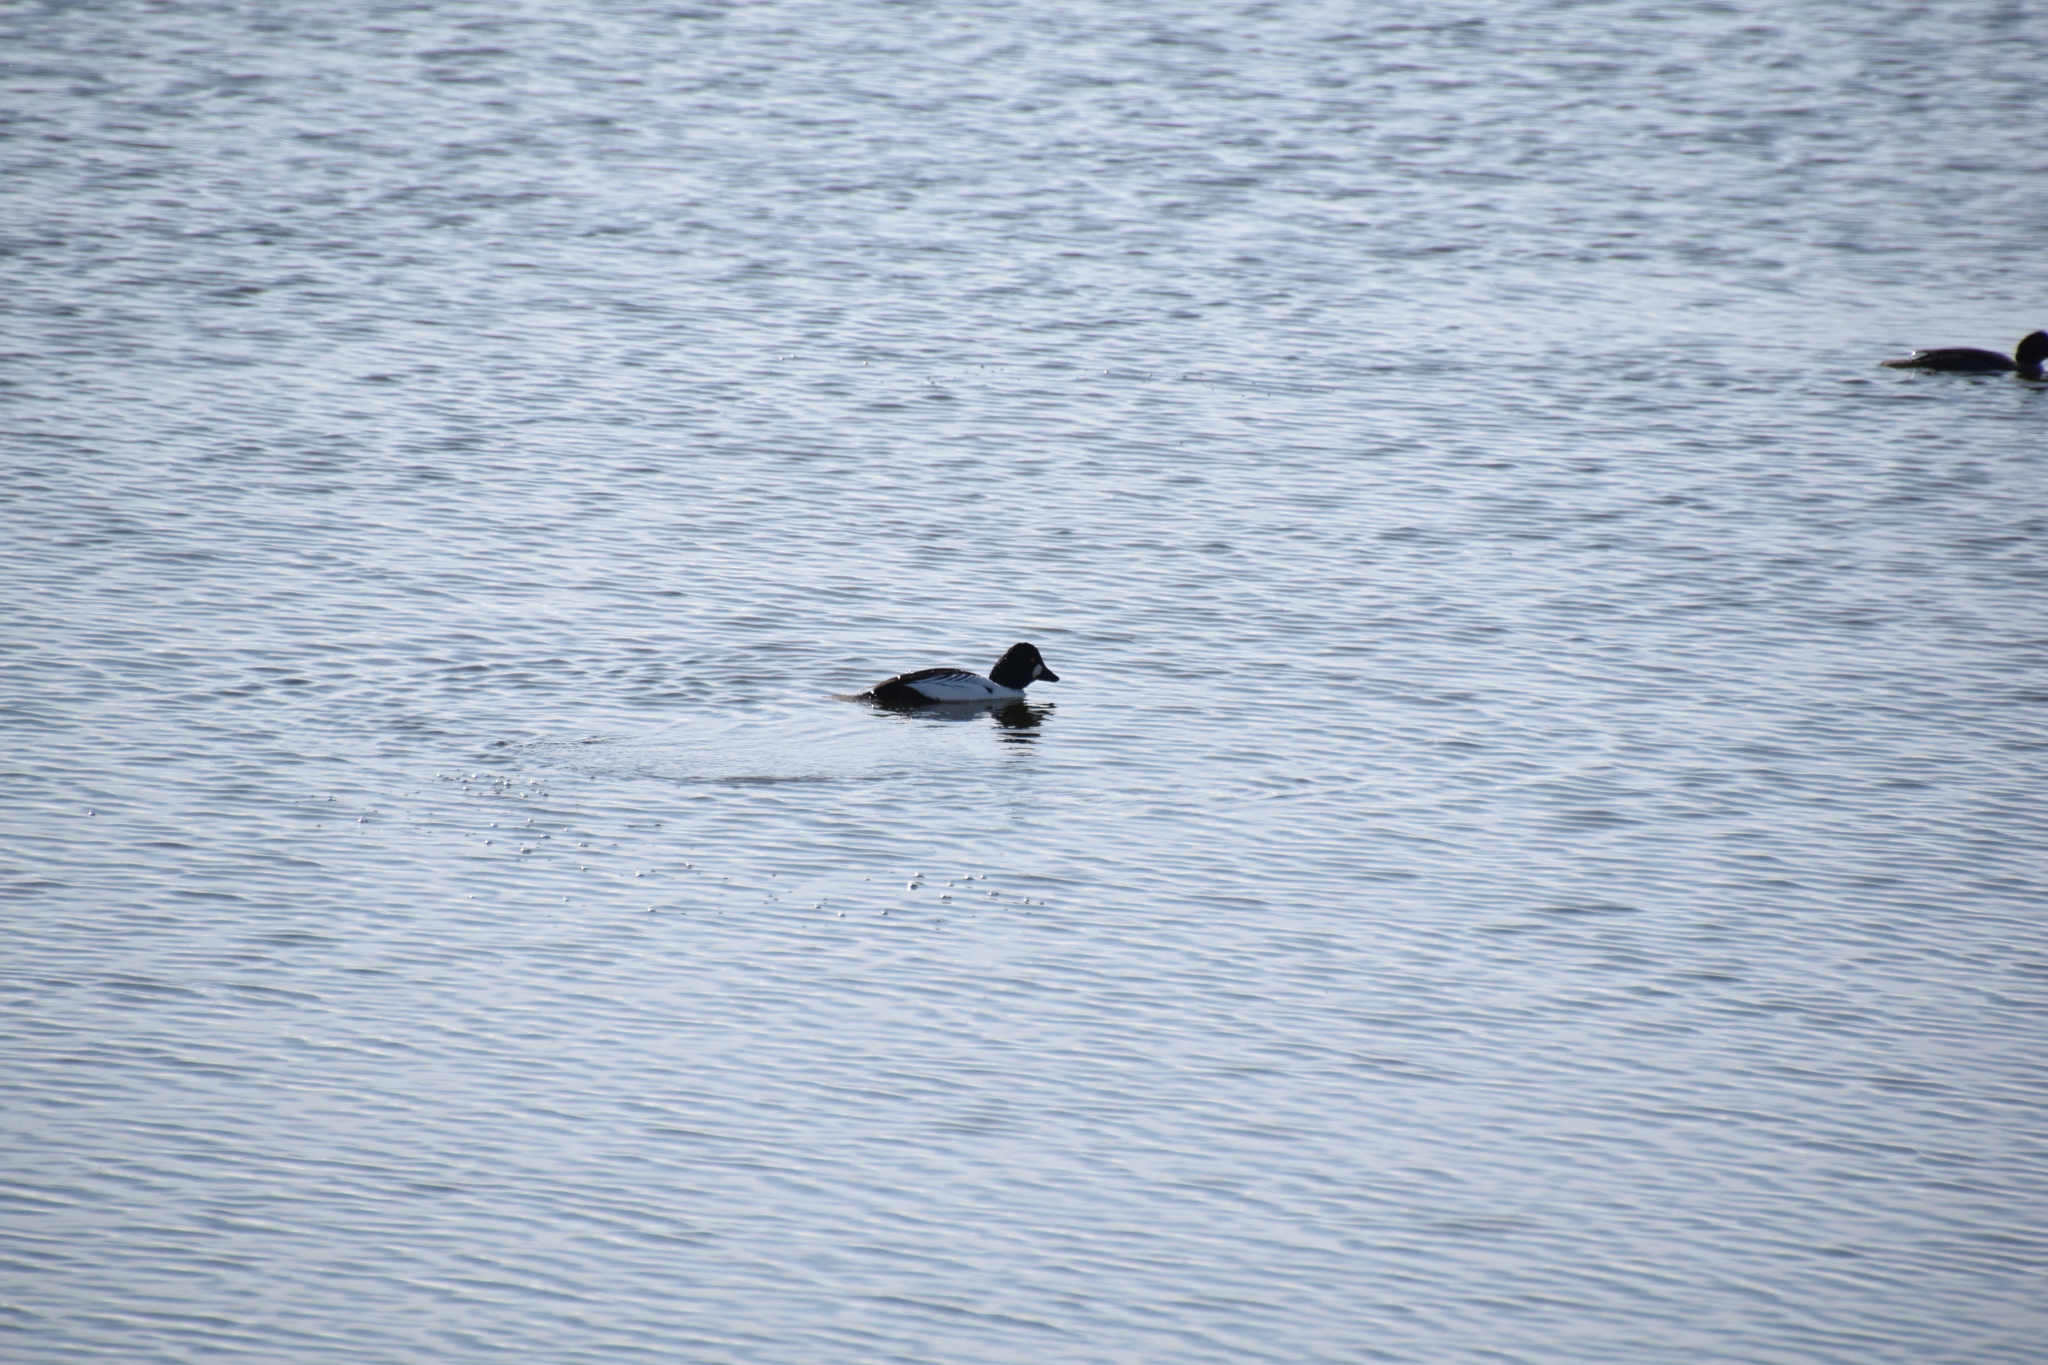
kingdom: Animalia
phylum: Chordata
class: Aves
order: Anseriformes
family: Anatidae
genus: Bucephala
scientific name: Bucephala clangula
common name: Common goldeneye
